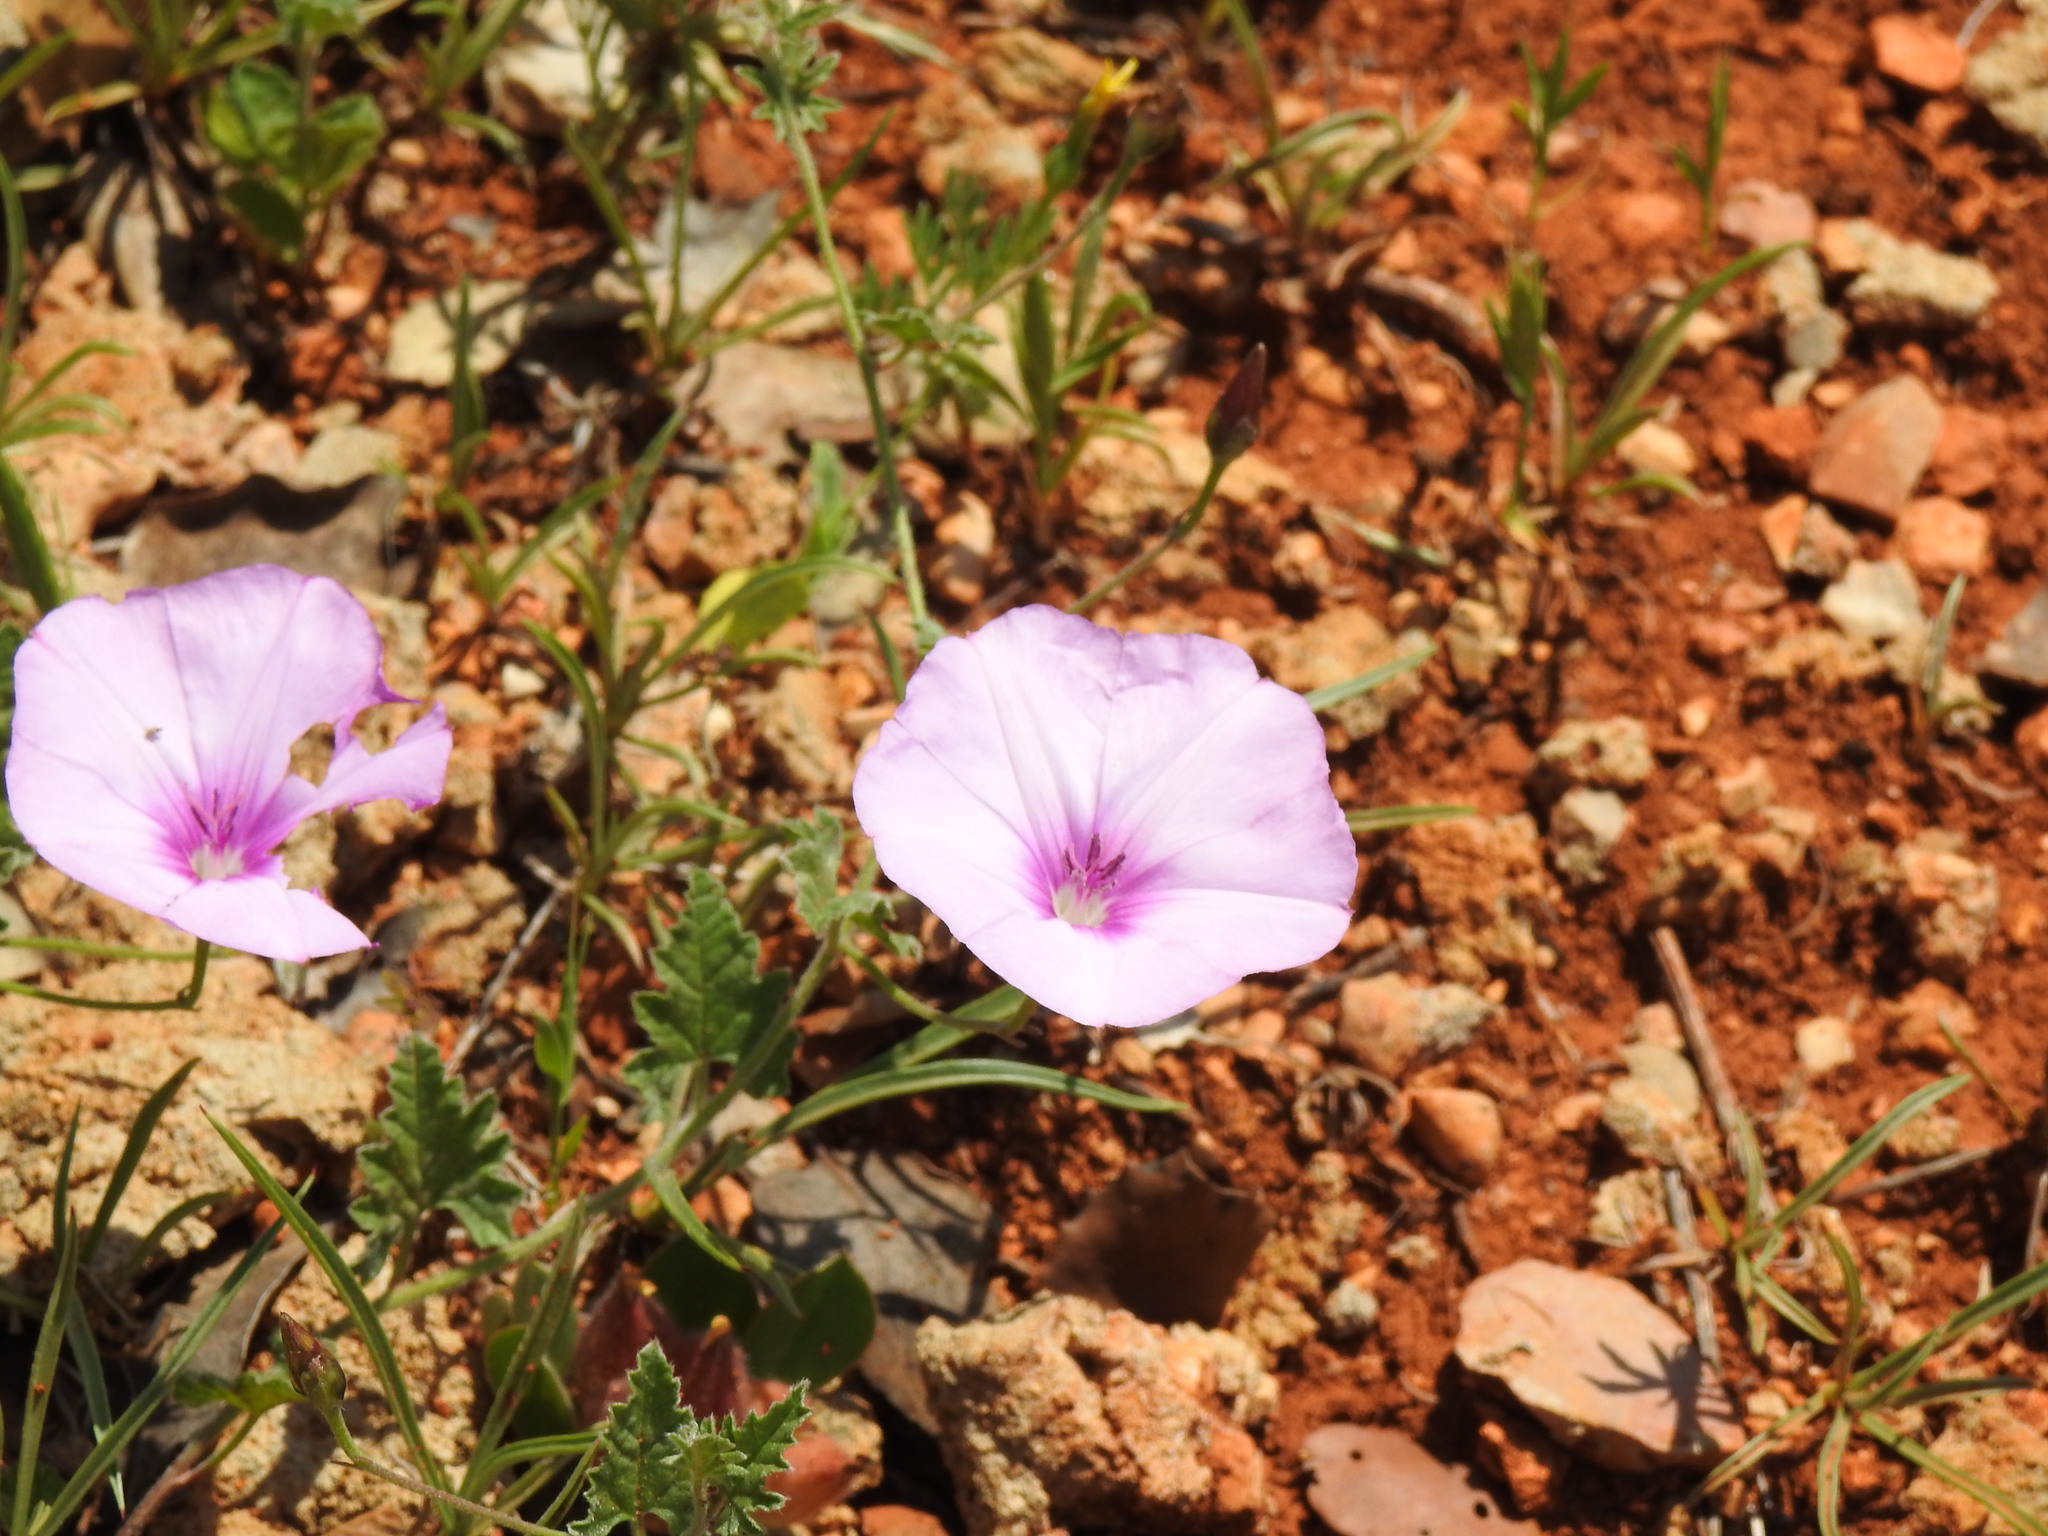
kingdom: Plantae
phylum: Tracheophyta
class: Magnoliopsida
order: Solanales
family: Convolvulaceae
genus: Convolvulus
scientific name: Convolvulus althaeoides
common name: Mallow bindweed
